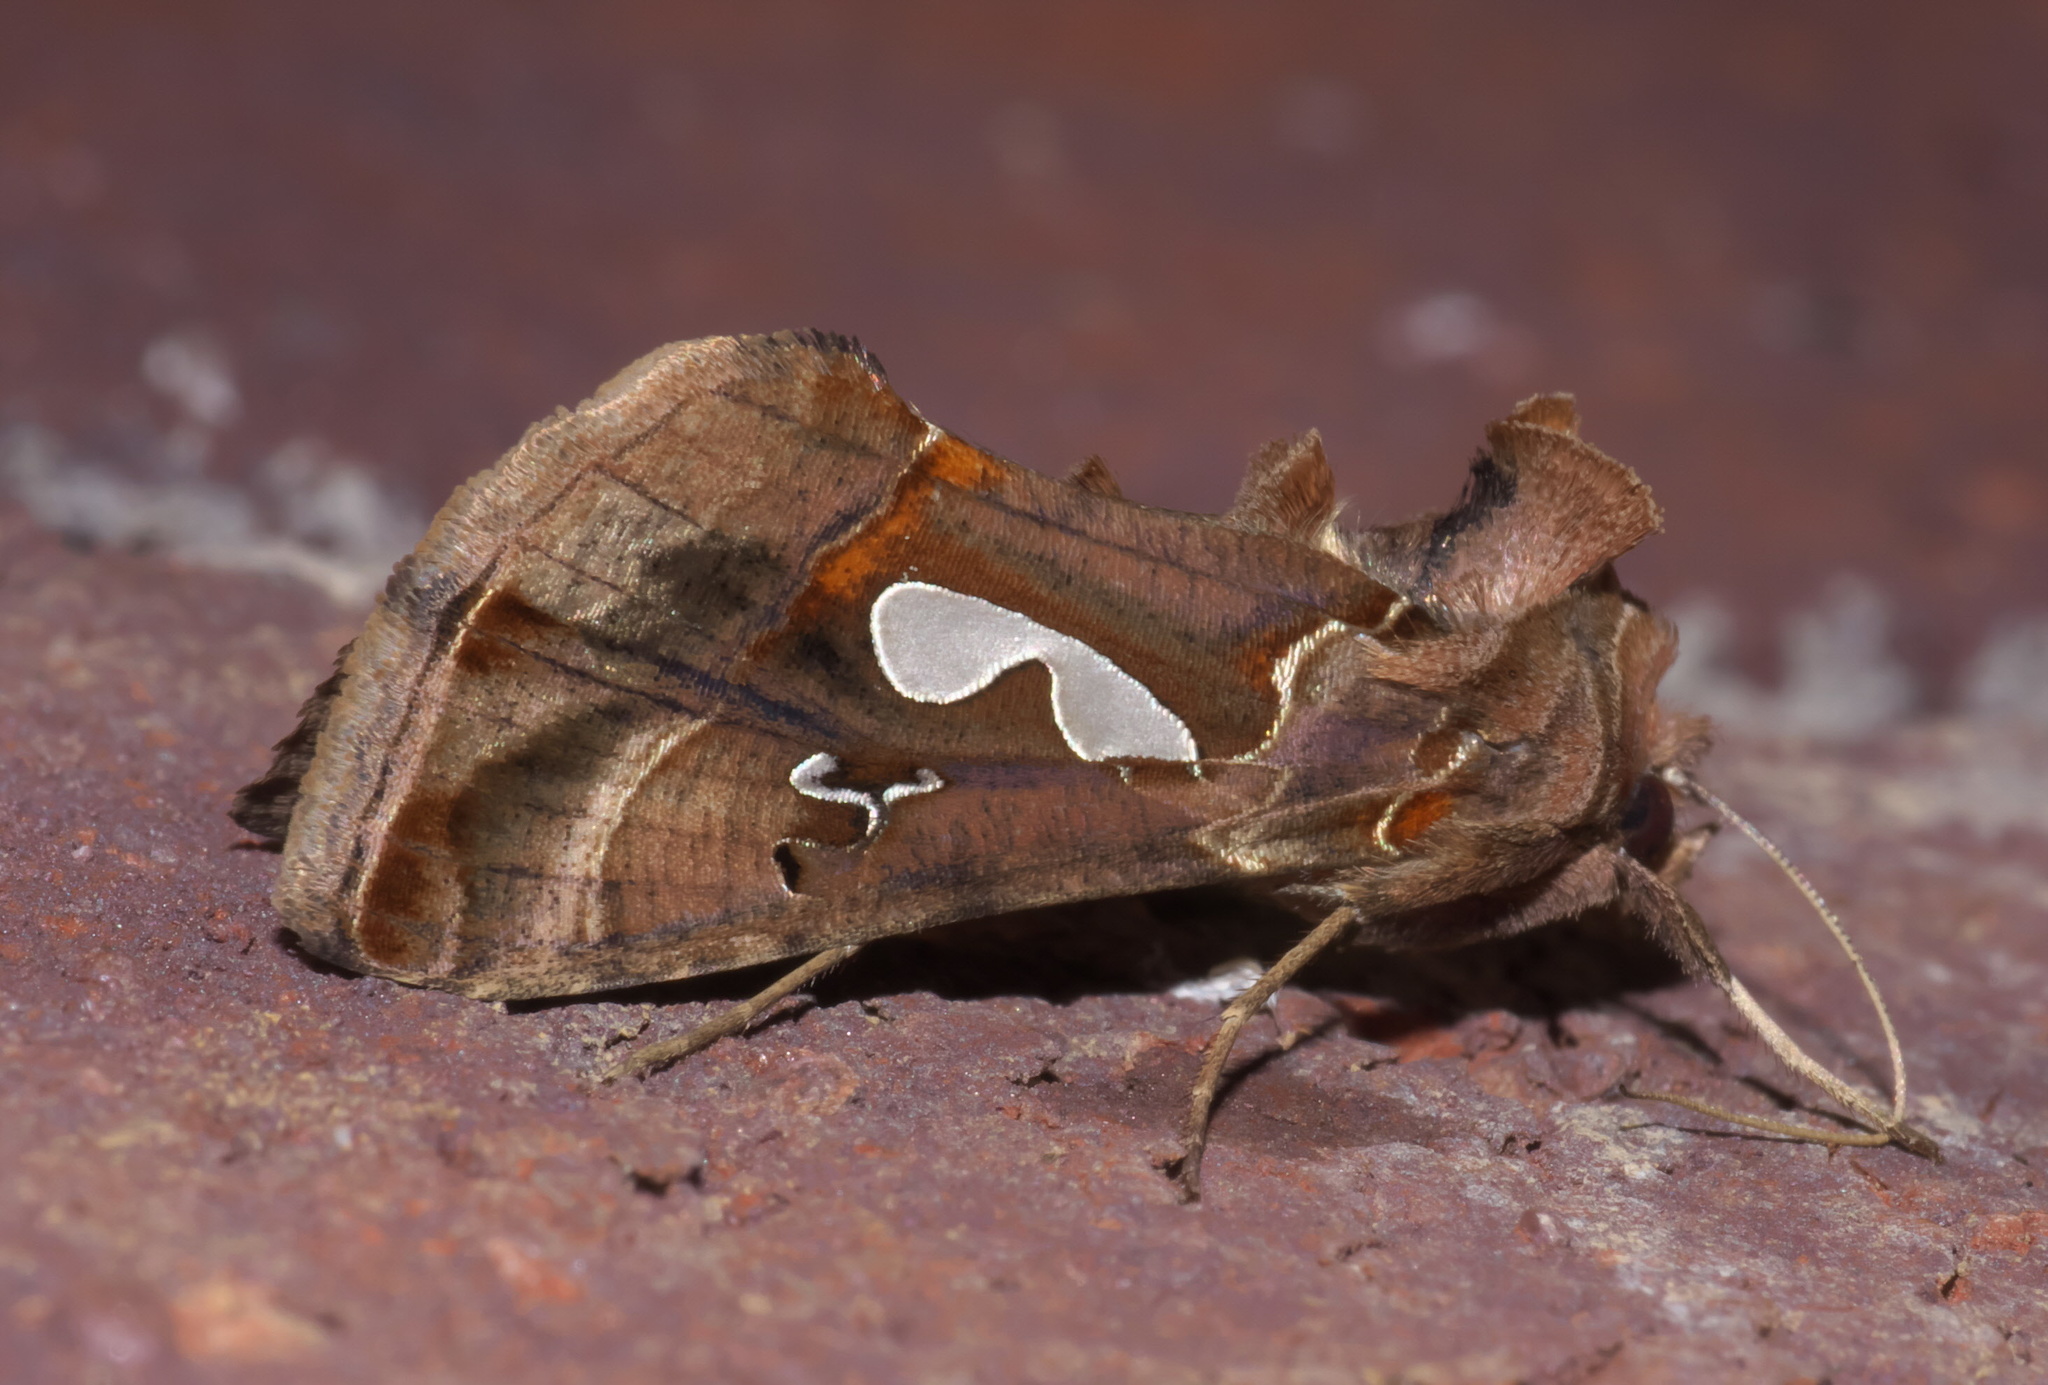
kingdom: Animalia
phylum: Arthropoda
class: Insecta
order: Lepidoptera
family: Noctuidae
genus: Megalographa
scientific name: Megalographa biloba
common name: Cutworm
